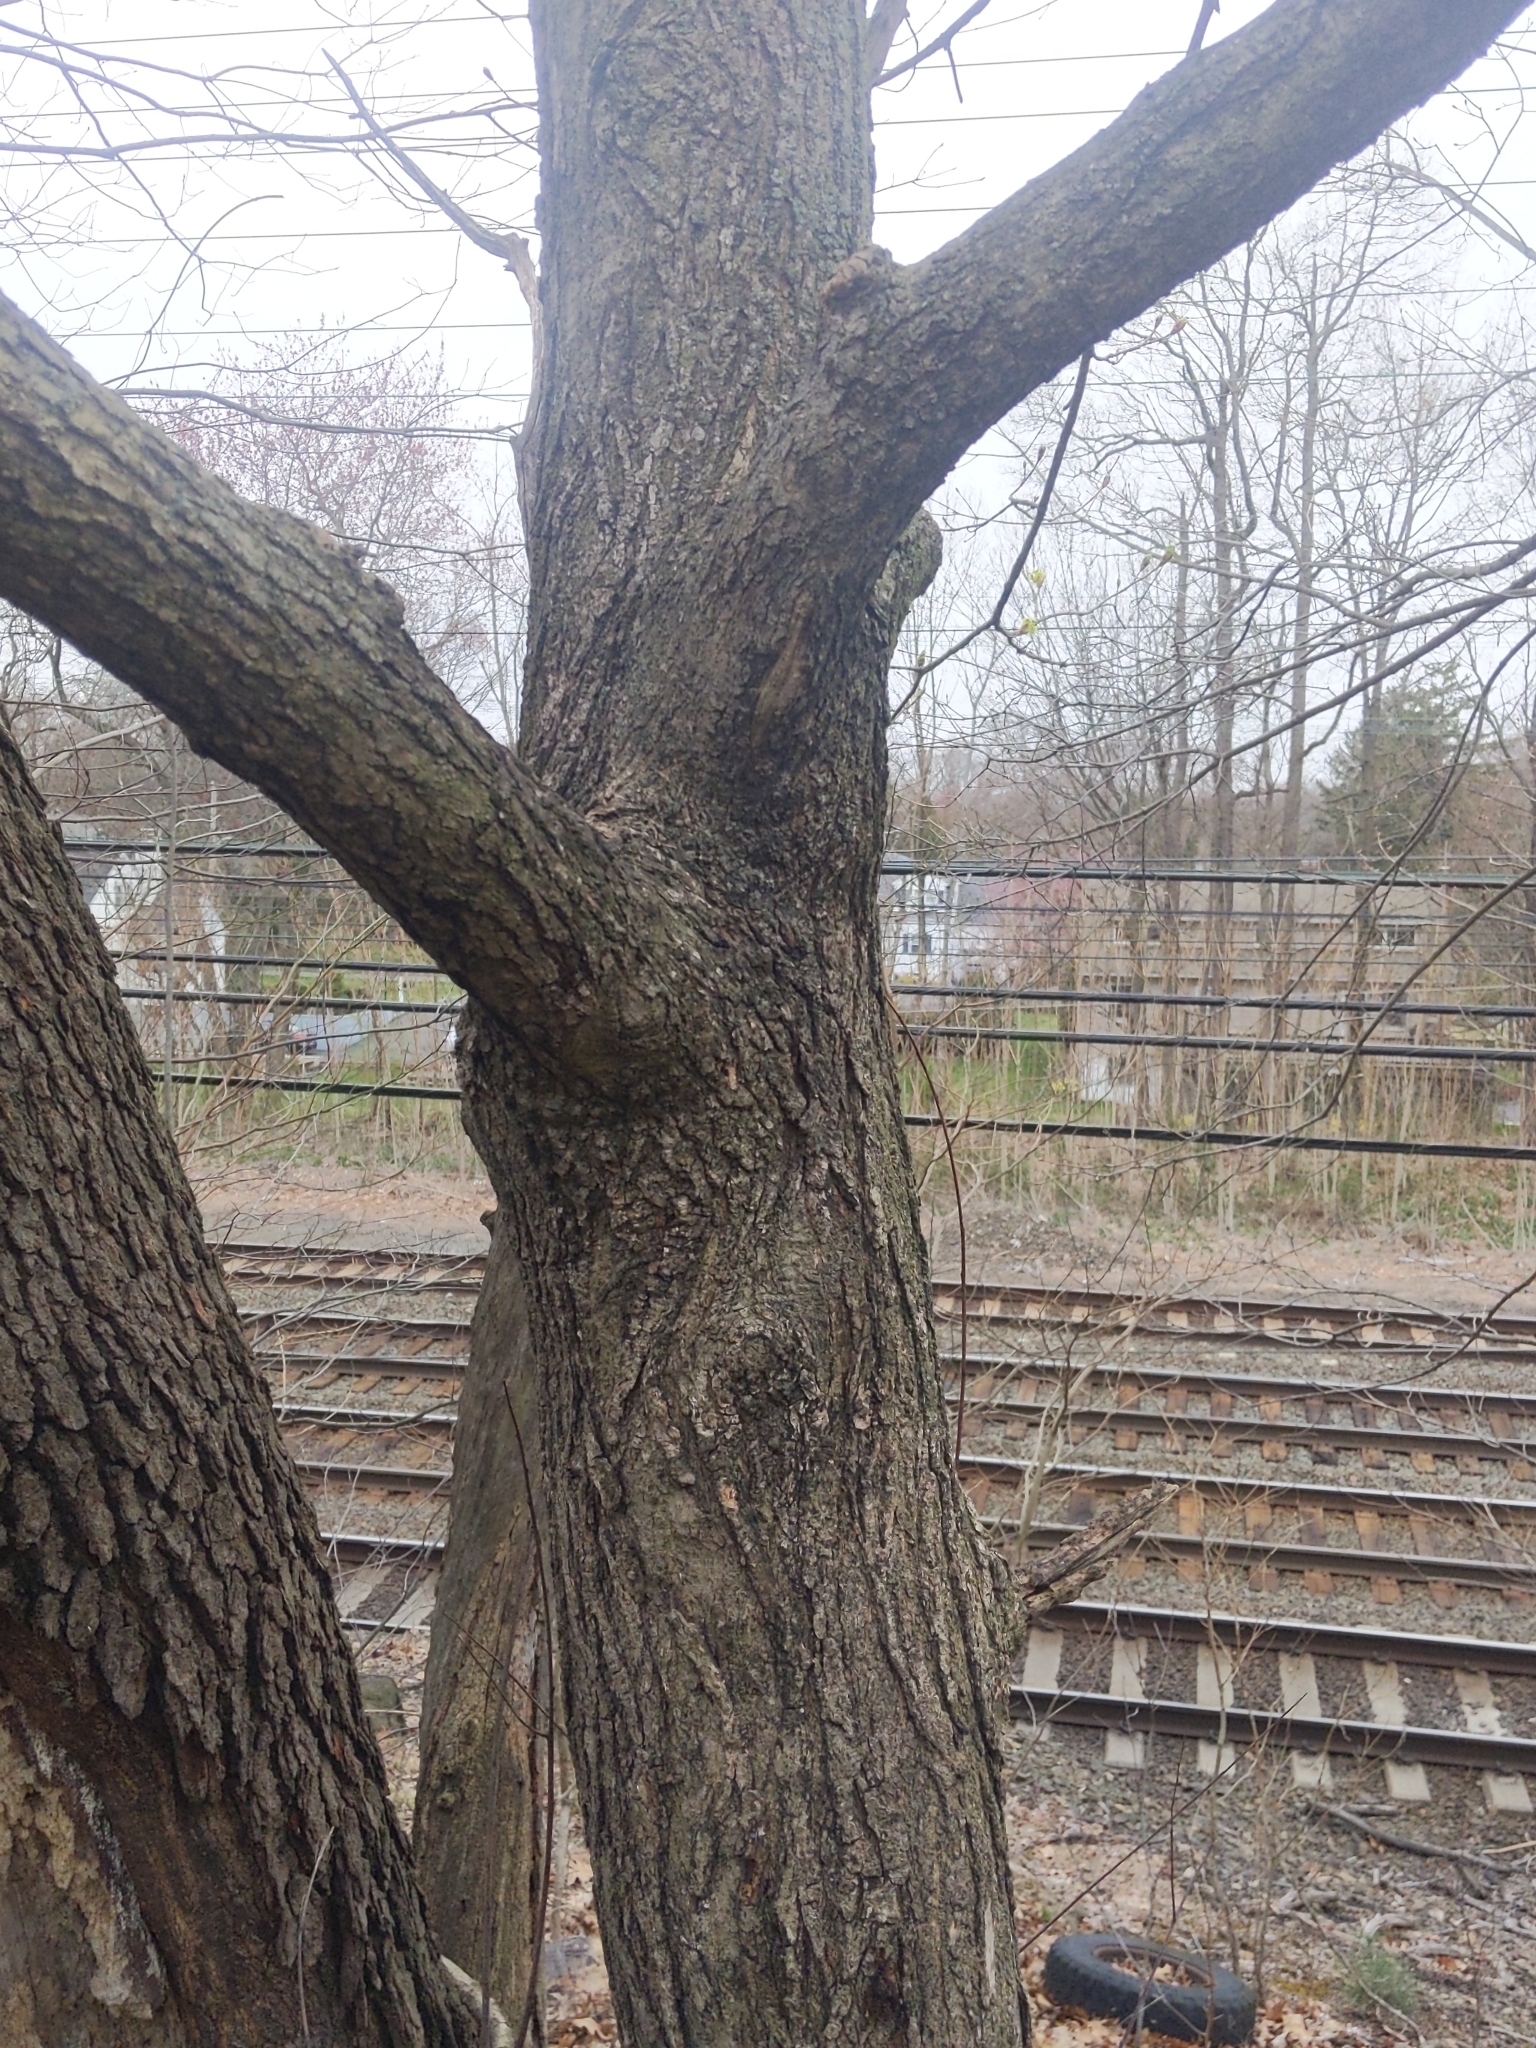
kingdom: Plantae
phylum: Tracheophyta
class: Magnoliopsida
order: Sapindales
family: Sapindaceae
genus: Acer
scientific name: Acer platanoides
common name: Norway maple
